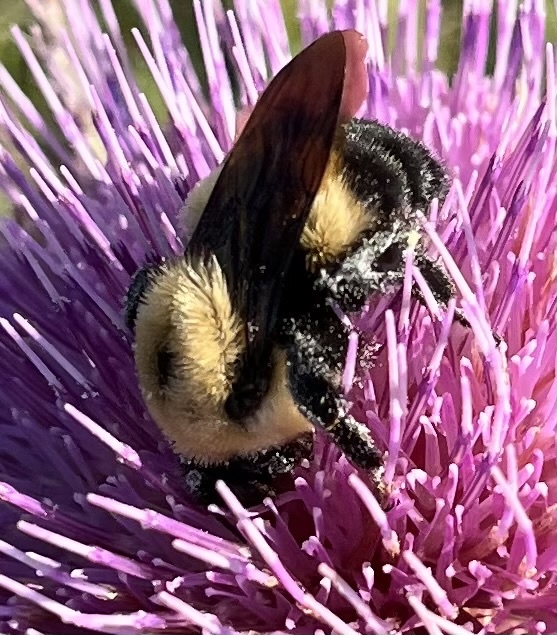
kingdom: Animalia
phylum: Arthropoda
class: Insecta
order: Hymenoptera
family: Apidae
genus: Bombus
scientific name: Bombus griseocollis
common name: Brown-belted bumble bee
